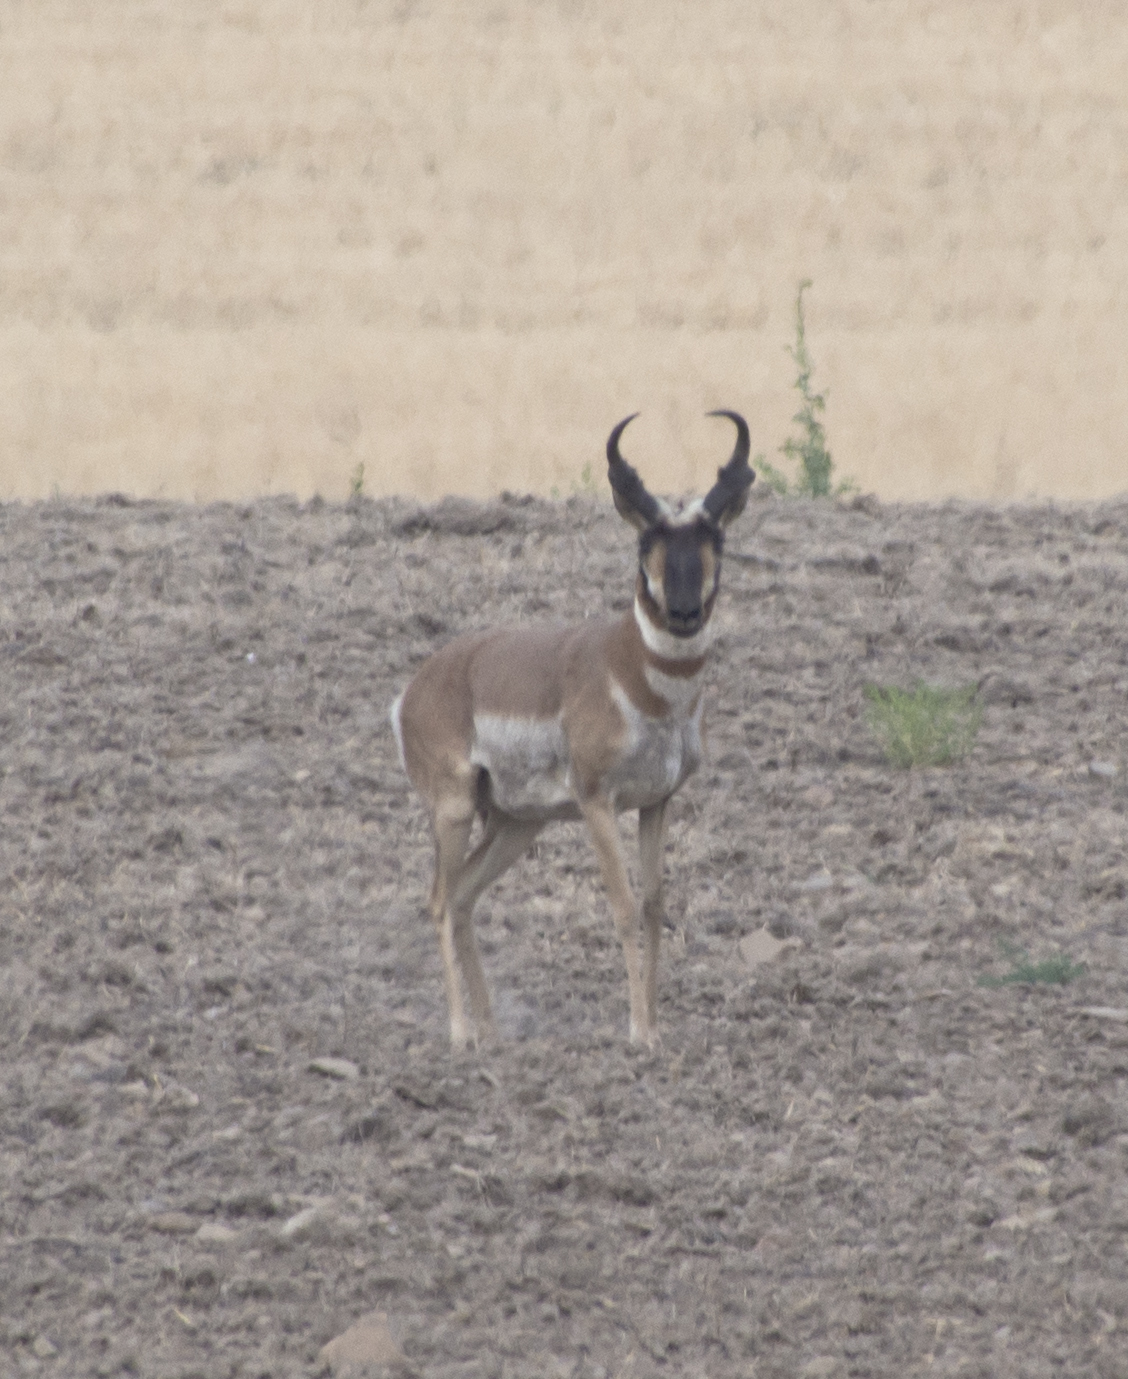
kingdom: Animalia
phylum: Chordata
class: Mammalia
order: Artiodactyla
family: Antilocapridae
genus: Antilocapra
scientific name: Antilocapra americana
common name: Pronghorn
